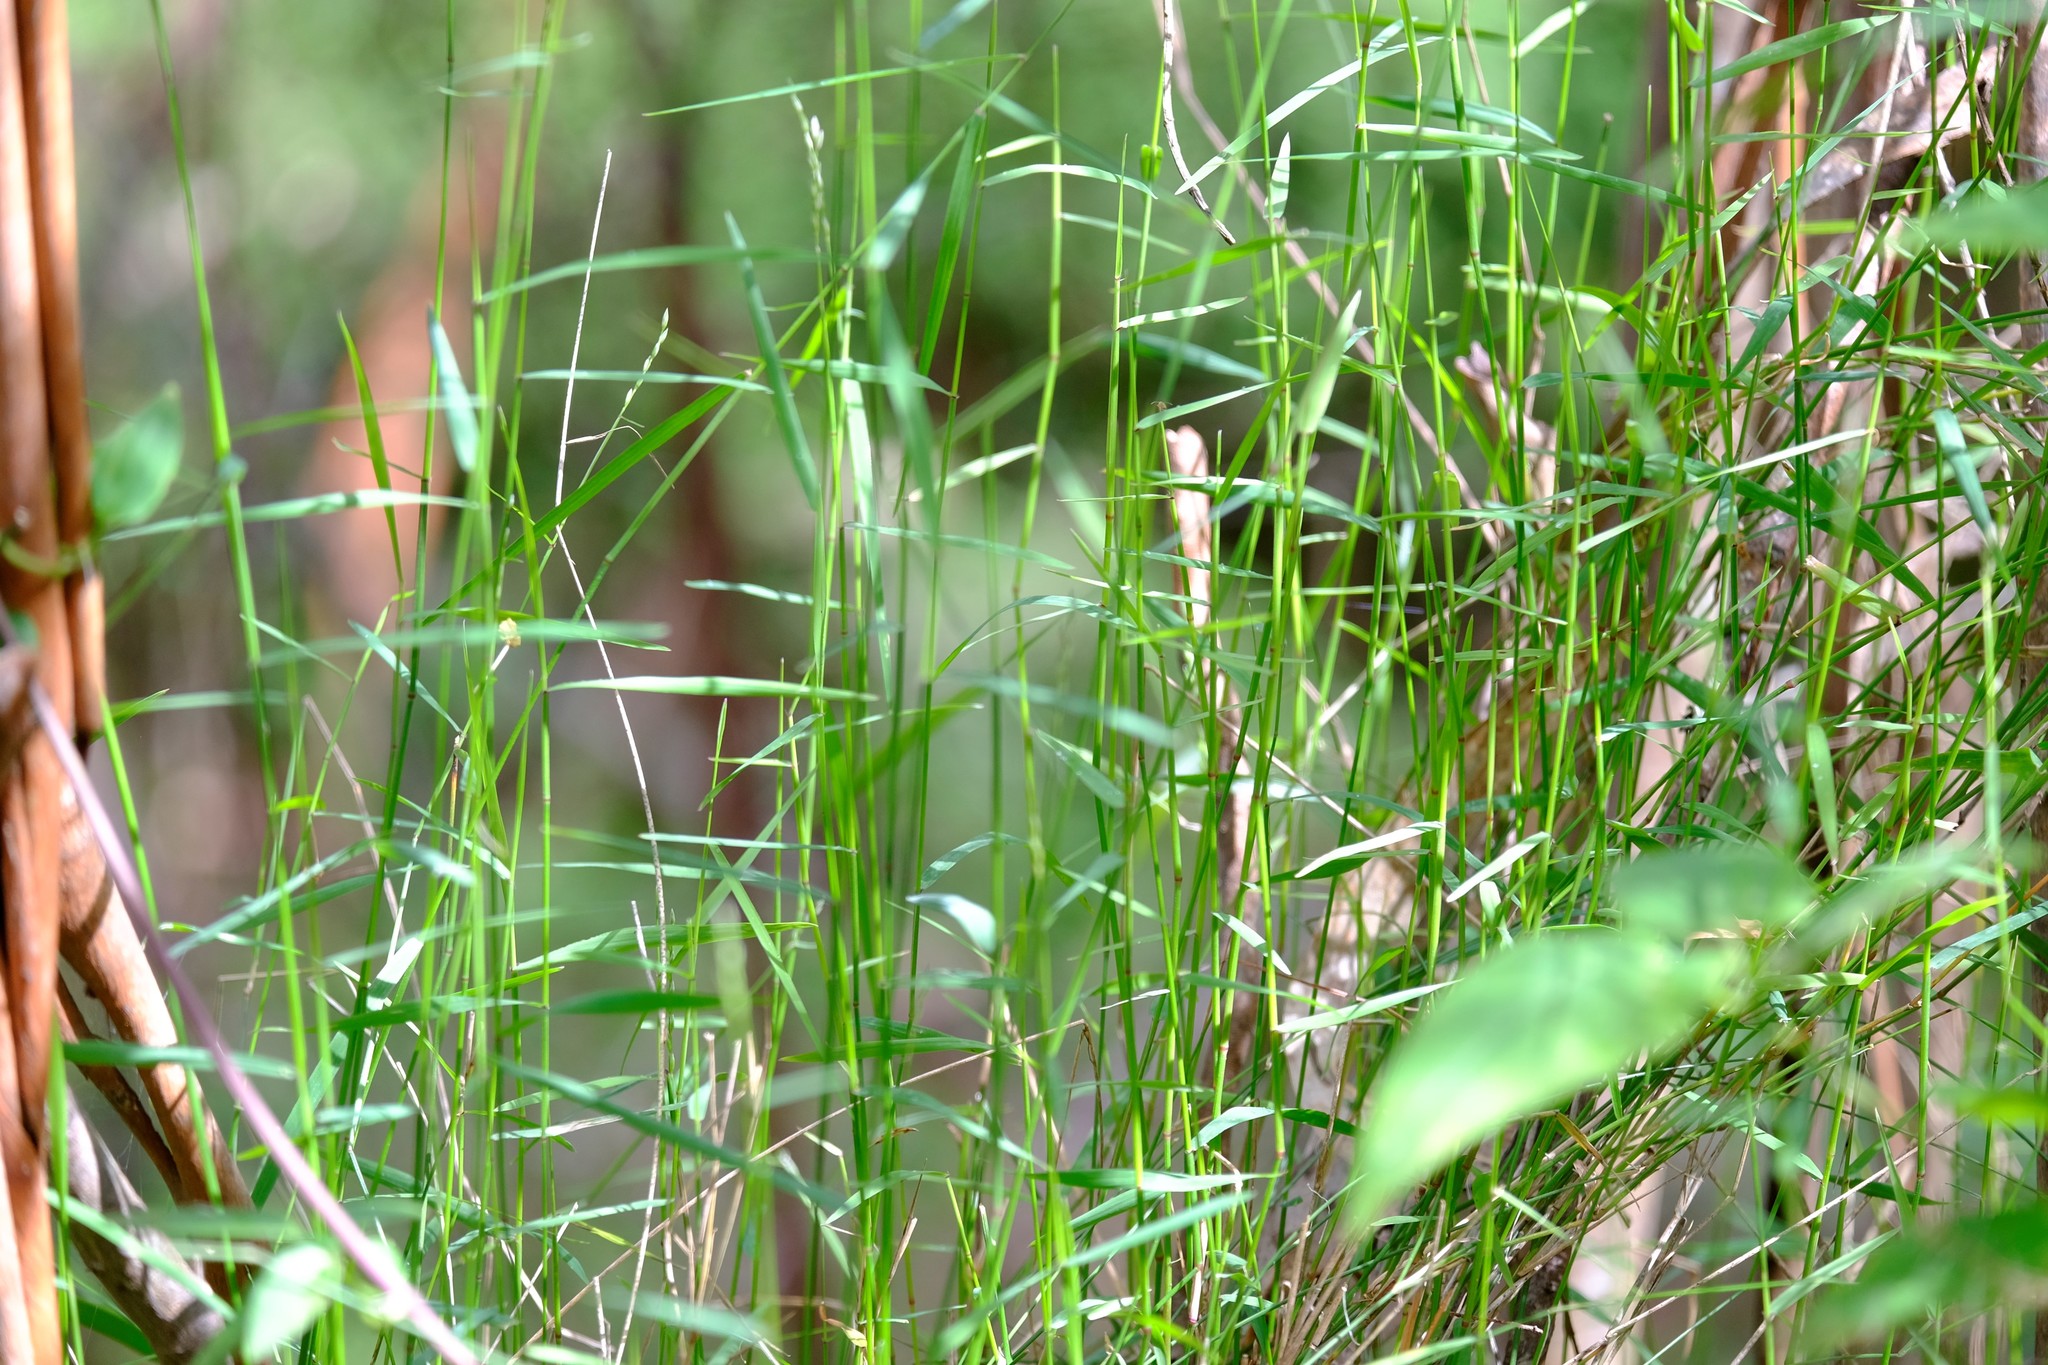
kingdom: Plantae
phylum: Tracheophyta
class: Liliopsida
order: Poales
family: Poaceae
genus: Tetrarrhena
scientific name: Tetrarrhena juncea
